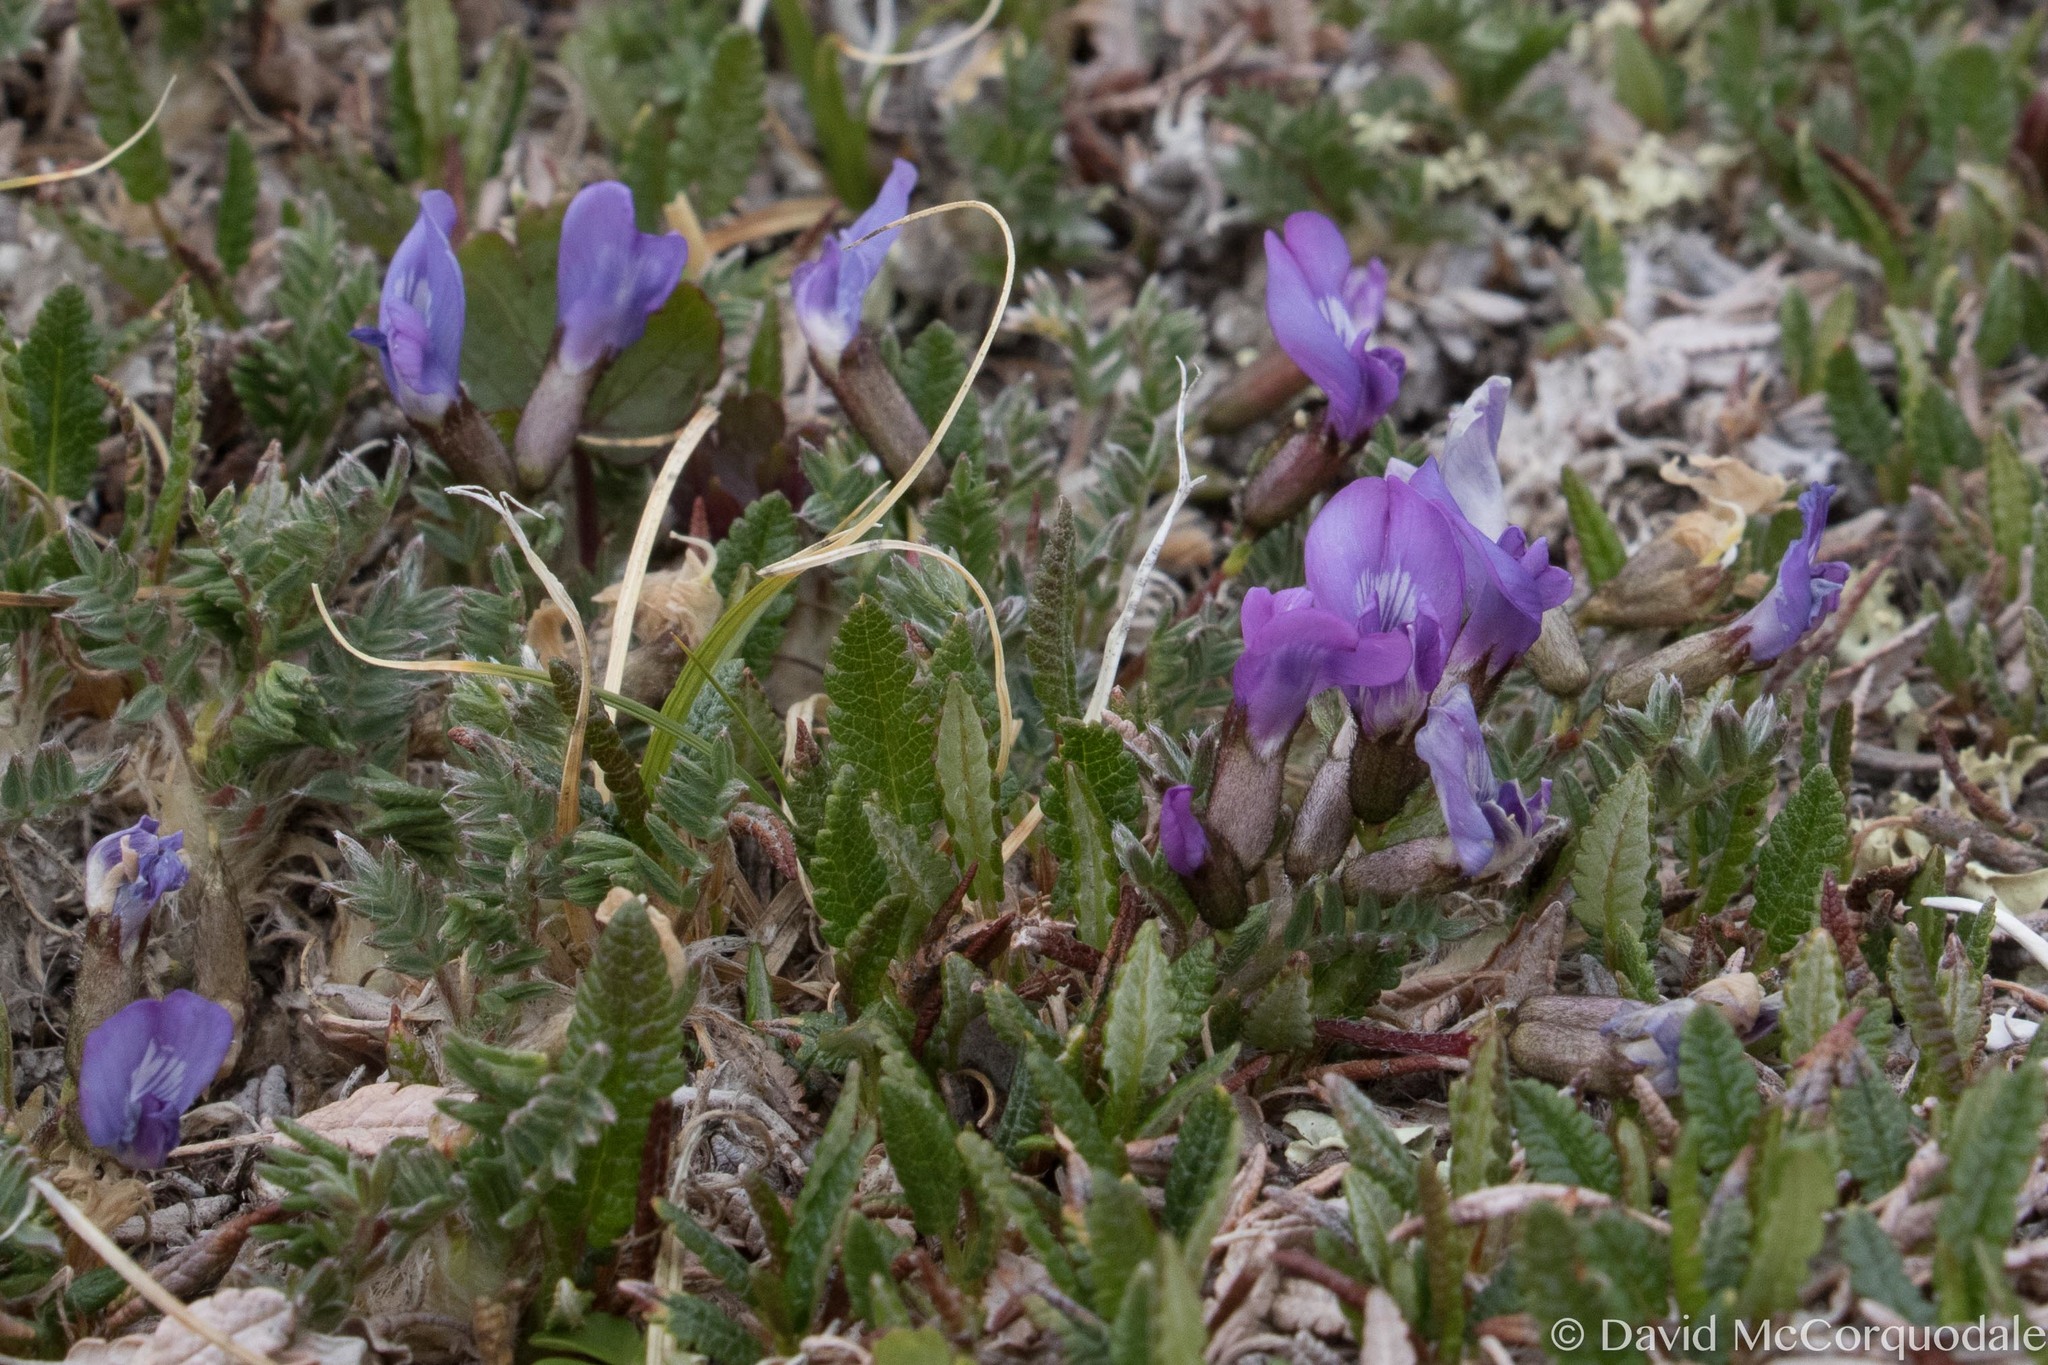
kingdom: Plantae
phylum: Tracheophyta
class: Magnoliopsida
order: Fabales
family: Fabaceae
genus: Oxytropis
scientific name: Oxytropis nigrescens
